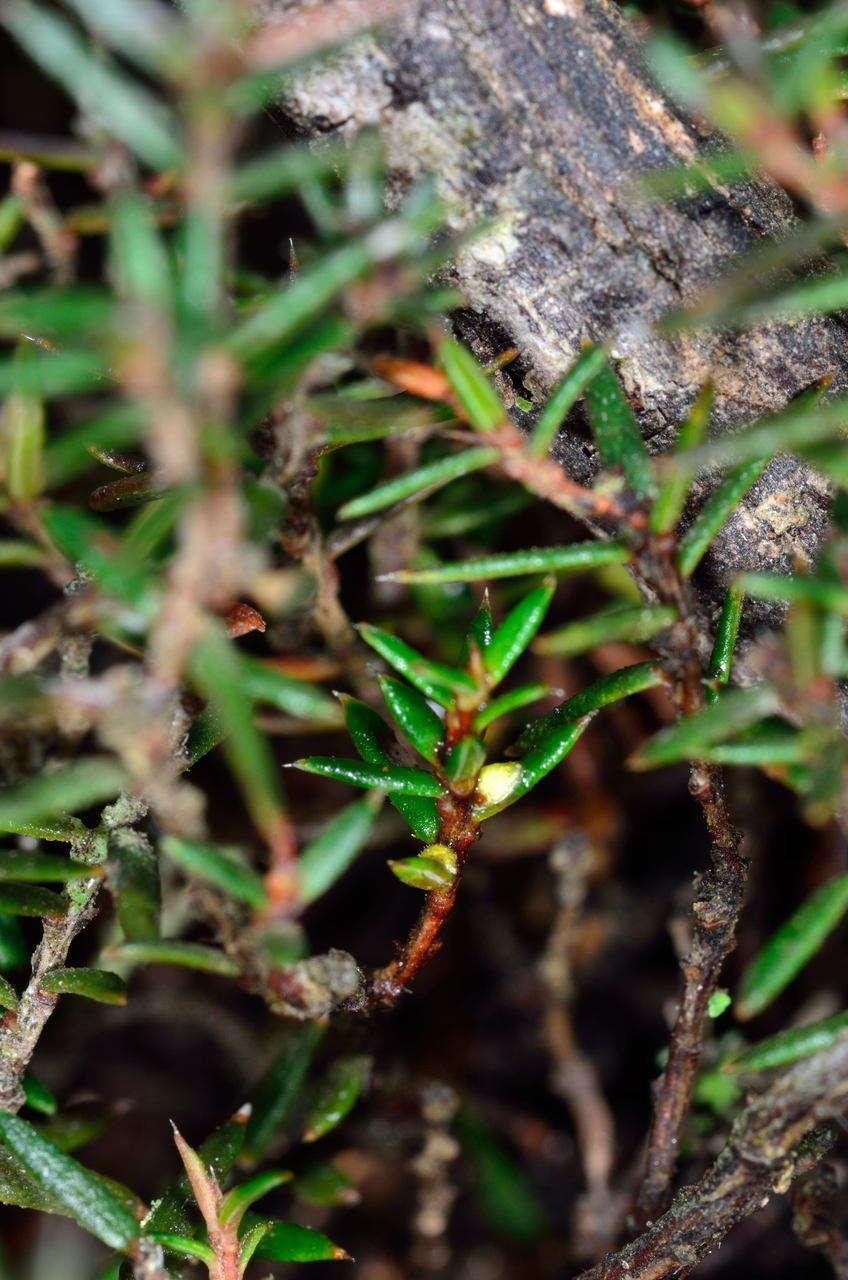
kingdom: Plantae
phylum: Tracheophyta
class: Magnoliopsida
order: Dilleniales
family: Dilleniaceae
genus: Hibbertia
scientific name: Hibbertia exutiacies
